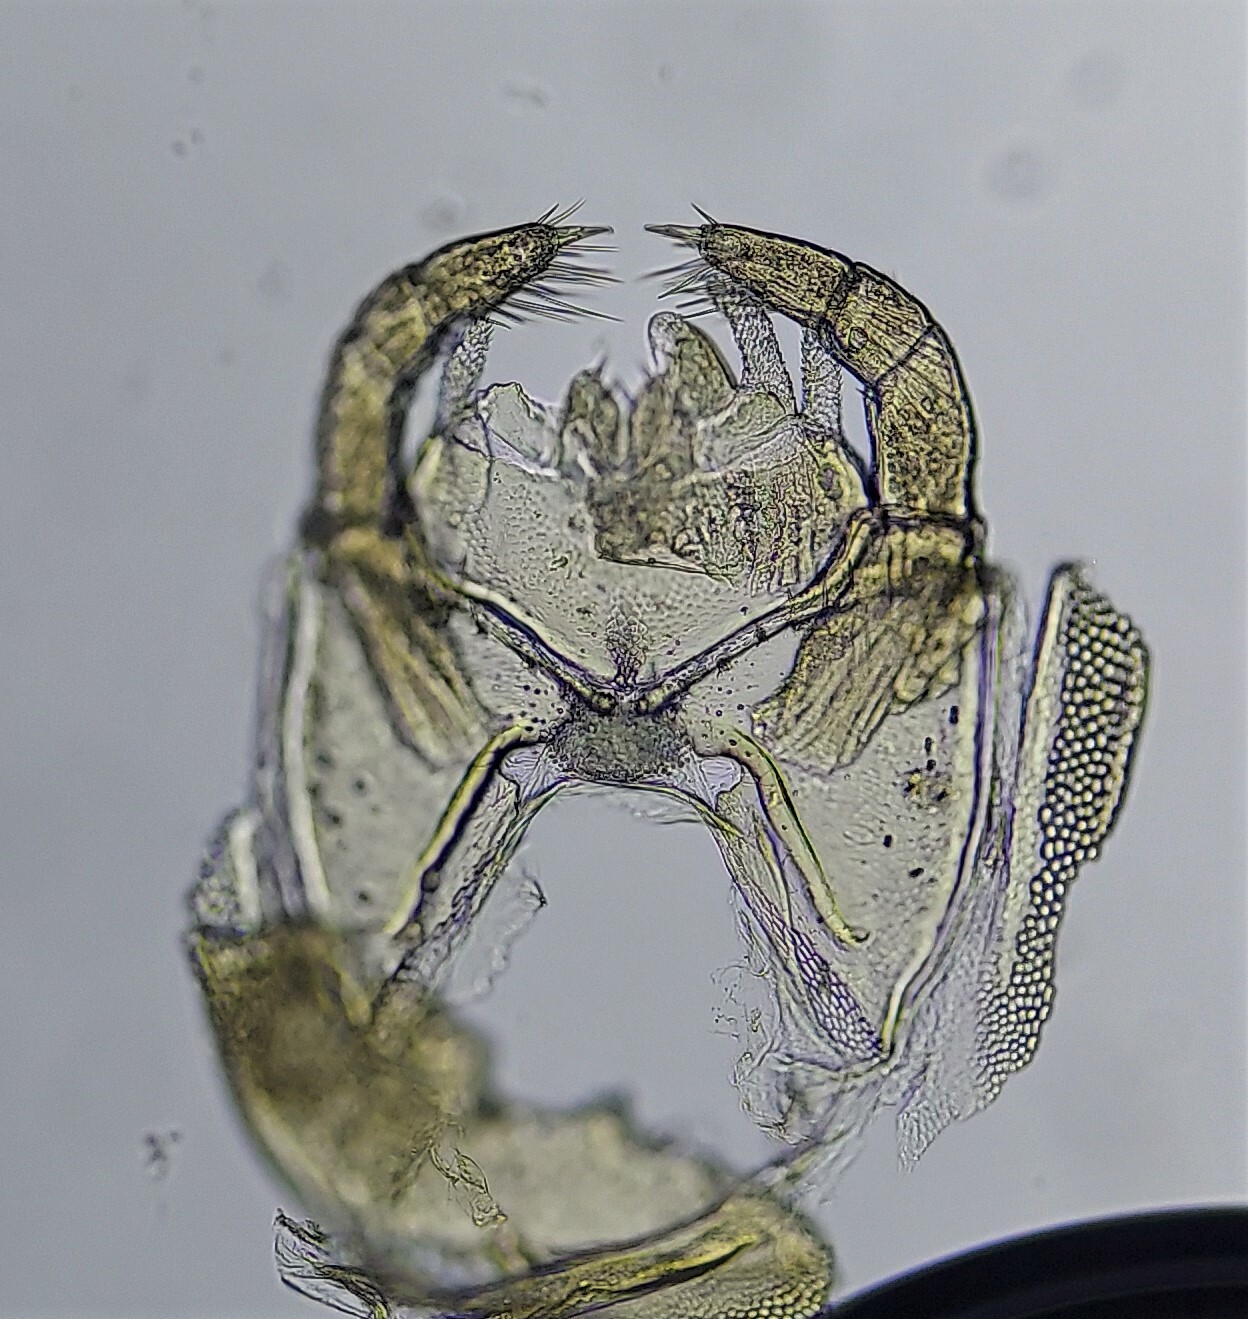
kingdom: Animalia
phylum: Arthropoda
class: Chilopoda
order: Geophilomorpha
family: Geophilidae
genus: Arctogeophilus
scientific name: Arctogeophilus umbraticus
